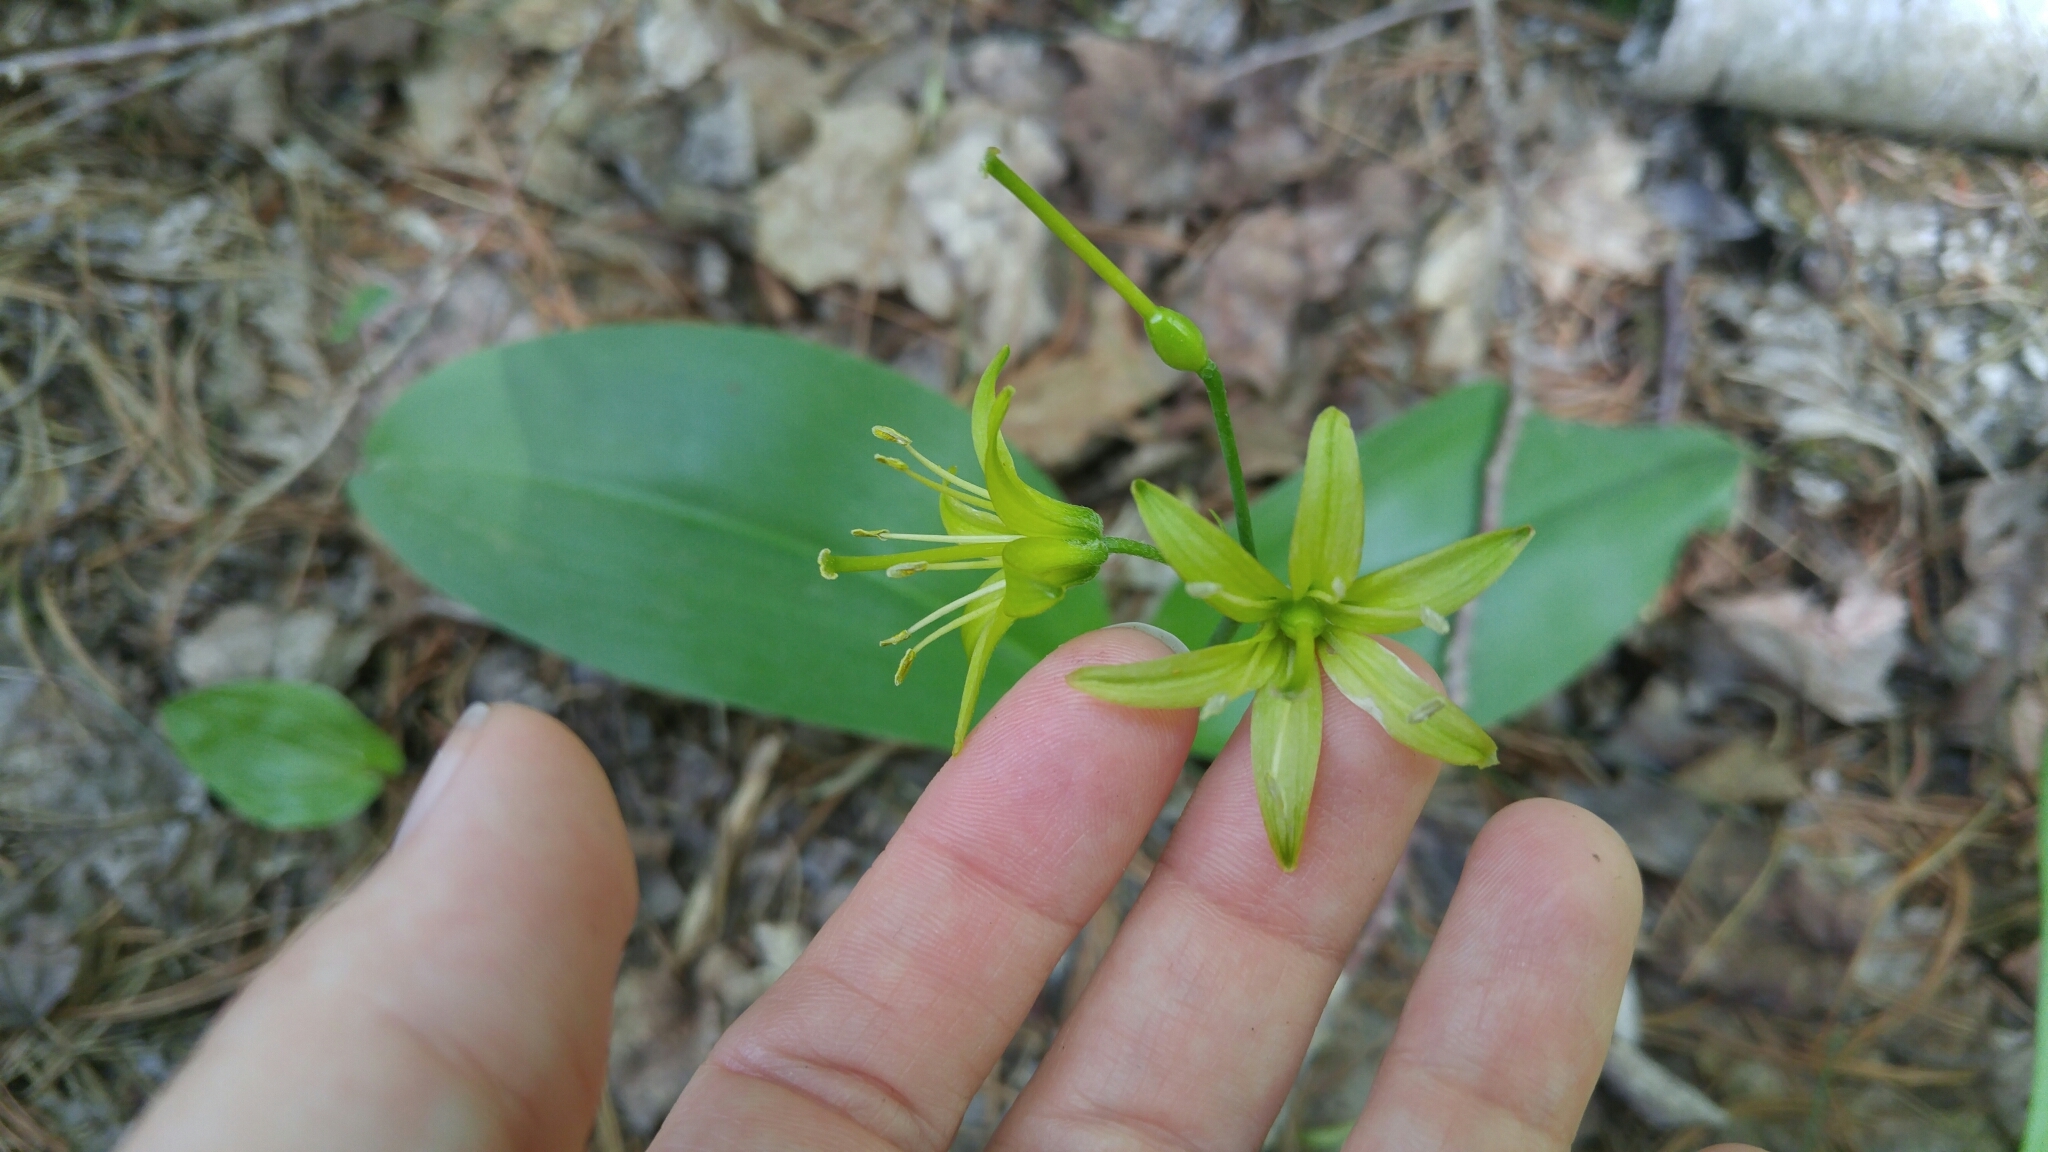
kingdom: Plantae
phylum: Tracheophyta
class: Liliopsida
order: Liliales
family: Liliaceae
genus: Clintonia
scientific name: Clintonia borealis
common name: Yellow clintonia
